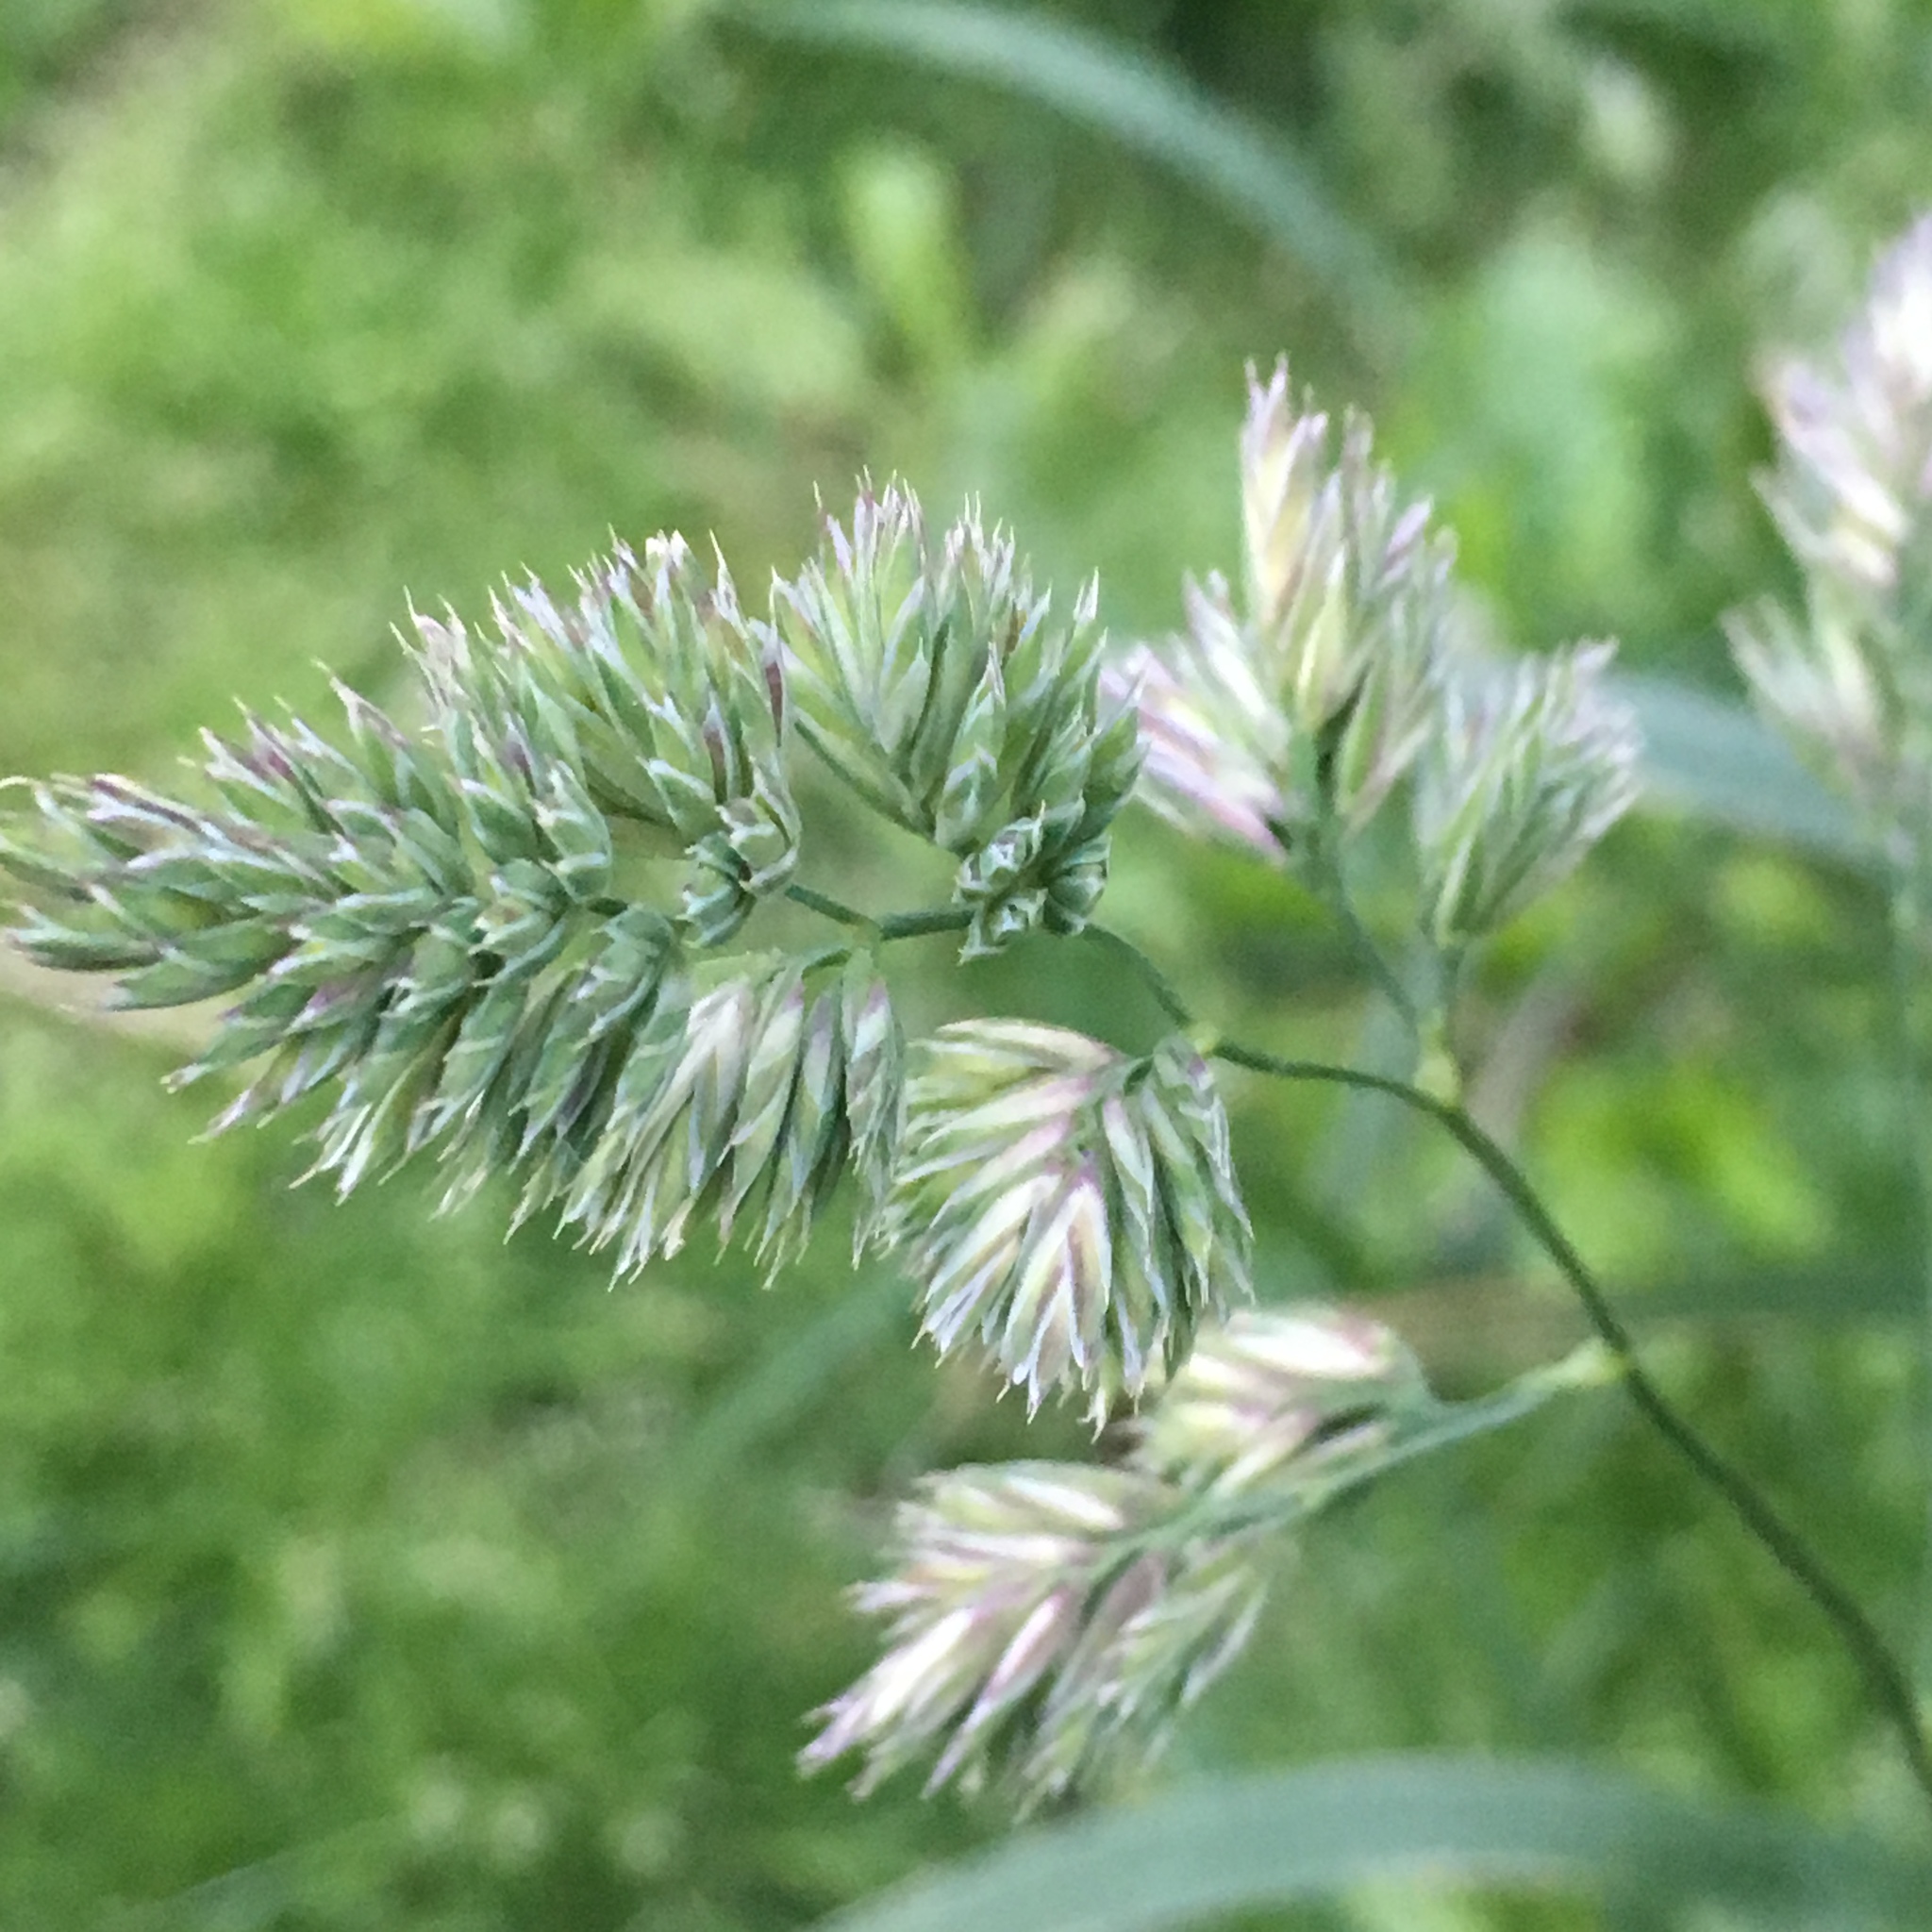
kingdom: Plantae
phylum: Tracheophyta
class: Liliopsida
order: Poales
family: Poaceae
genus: Dactylis
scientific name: Dactylis glomerata
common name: Orchardgrass
